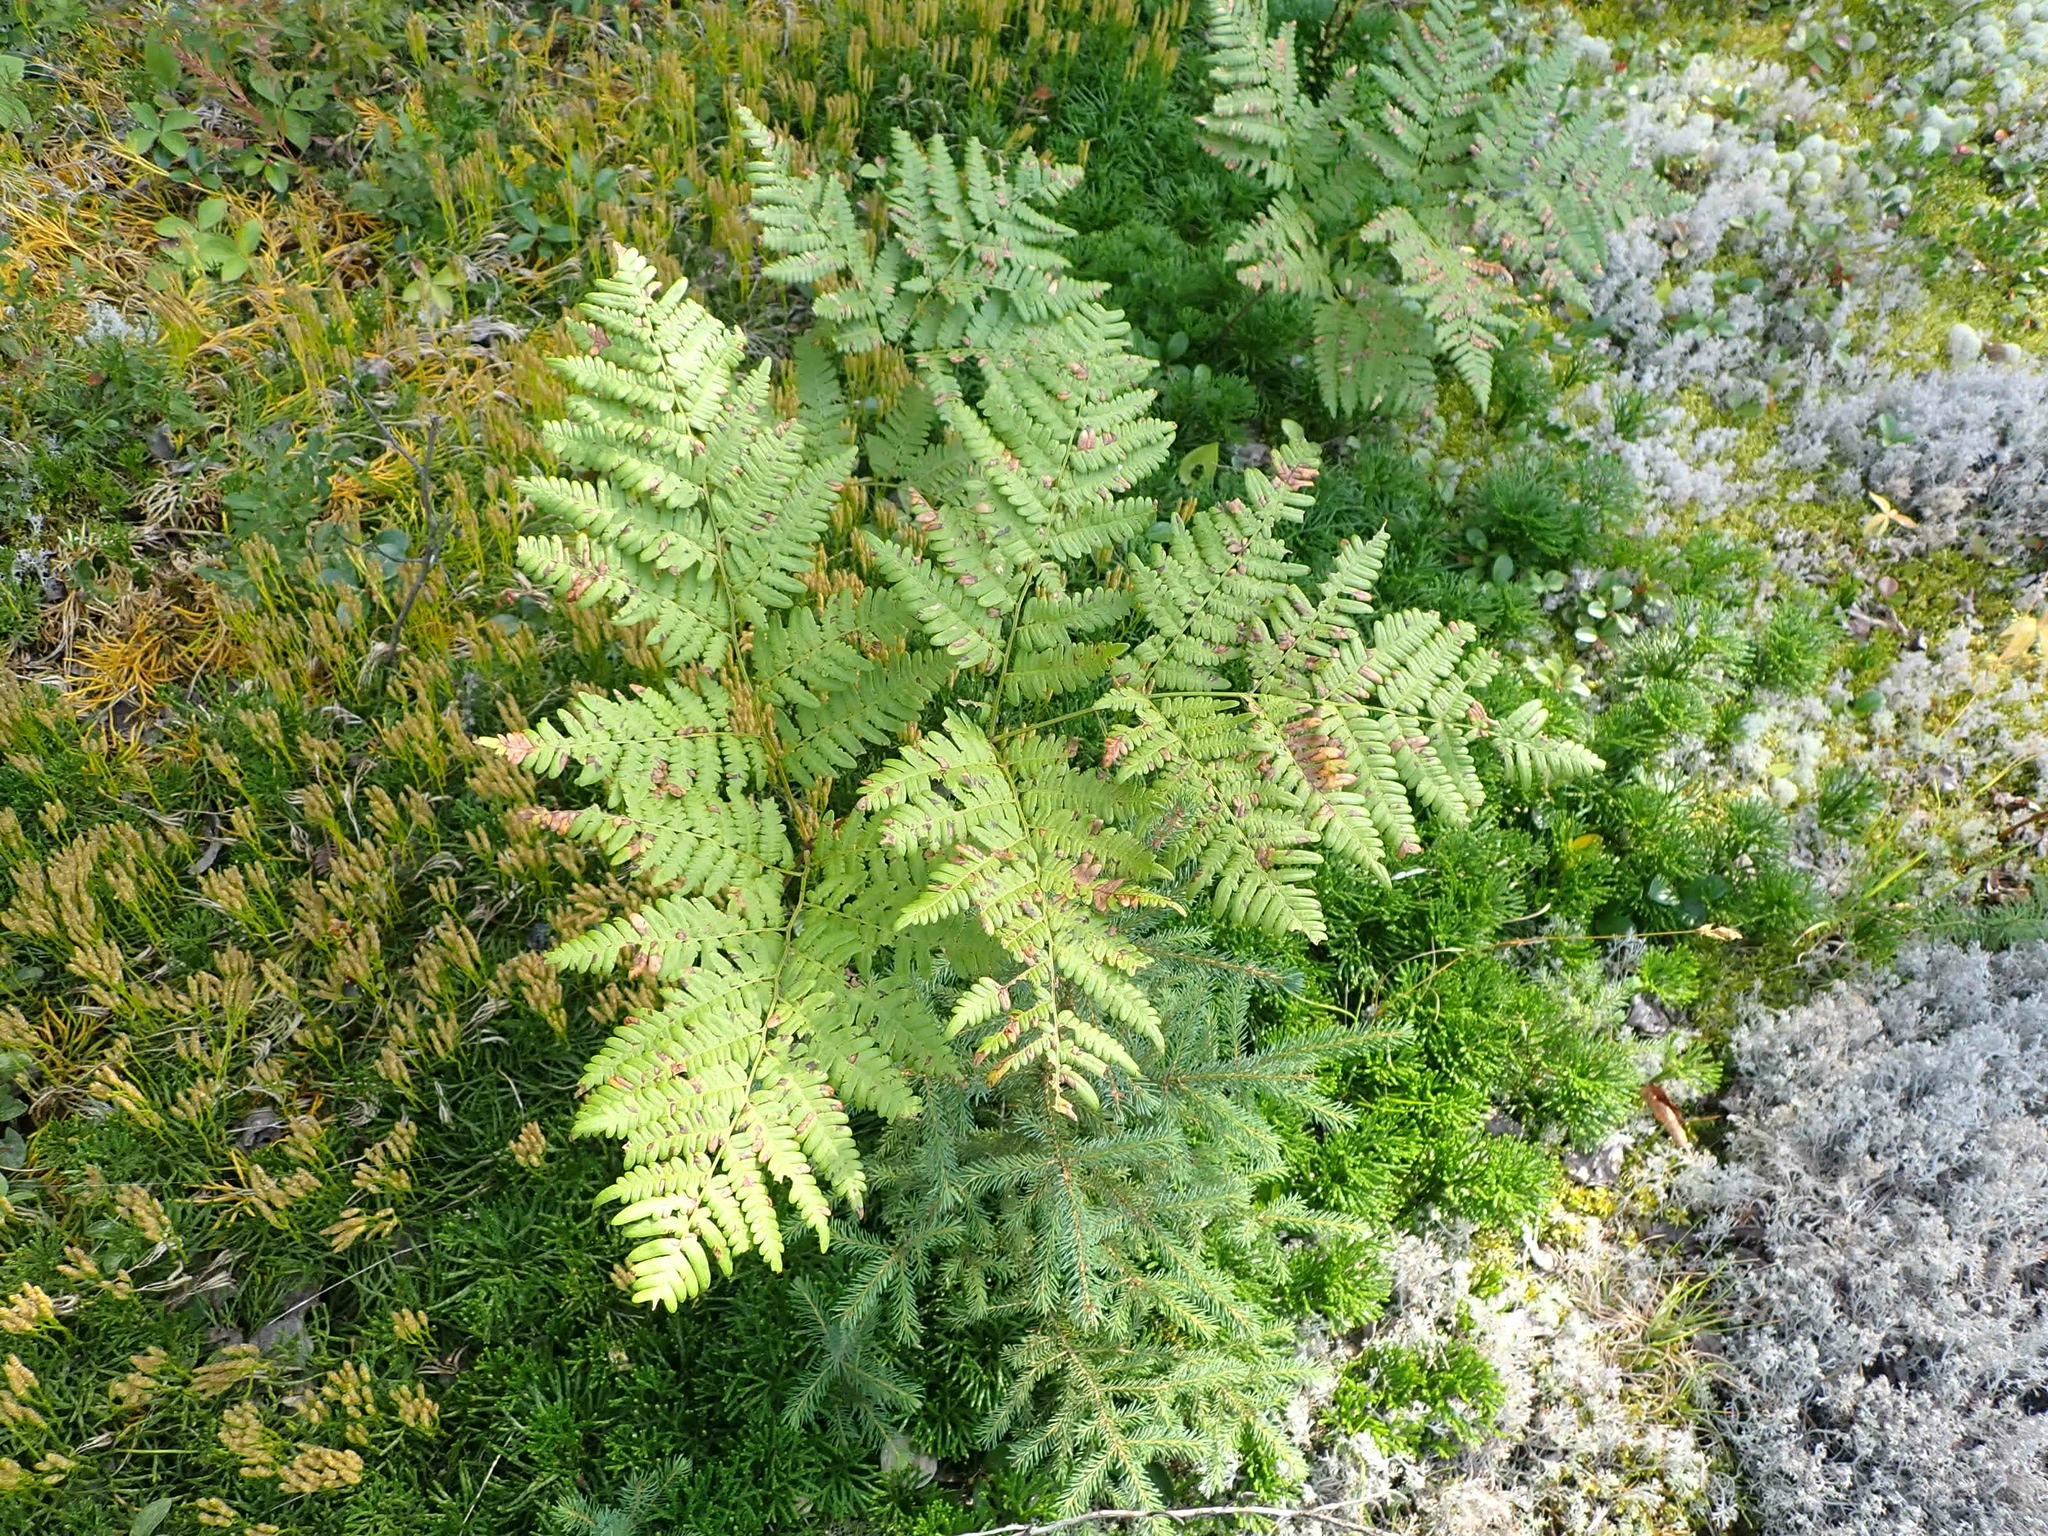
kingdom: Plantae
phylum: Tracheophyta
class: Polypodiopsida
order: Polypodiales
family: Dennstaedtiaceae
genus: Pteridium
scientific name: Pteridium aquilinum
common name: Bracken
